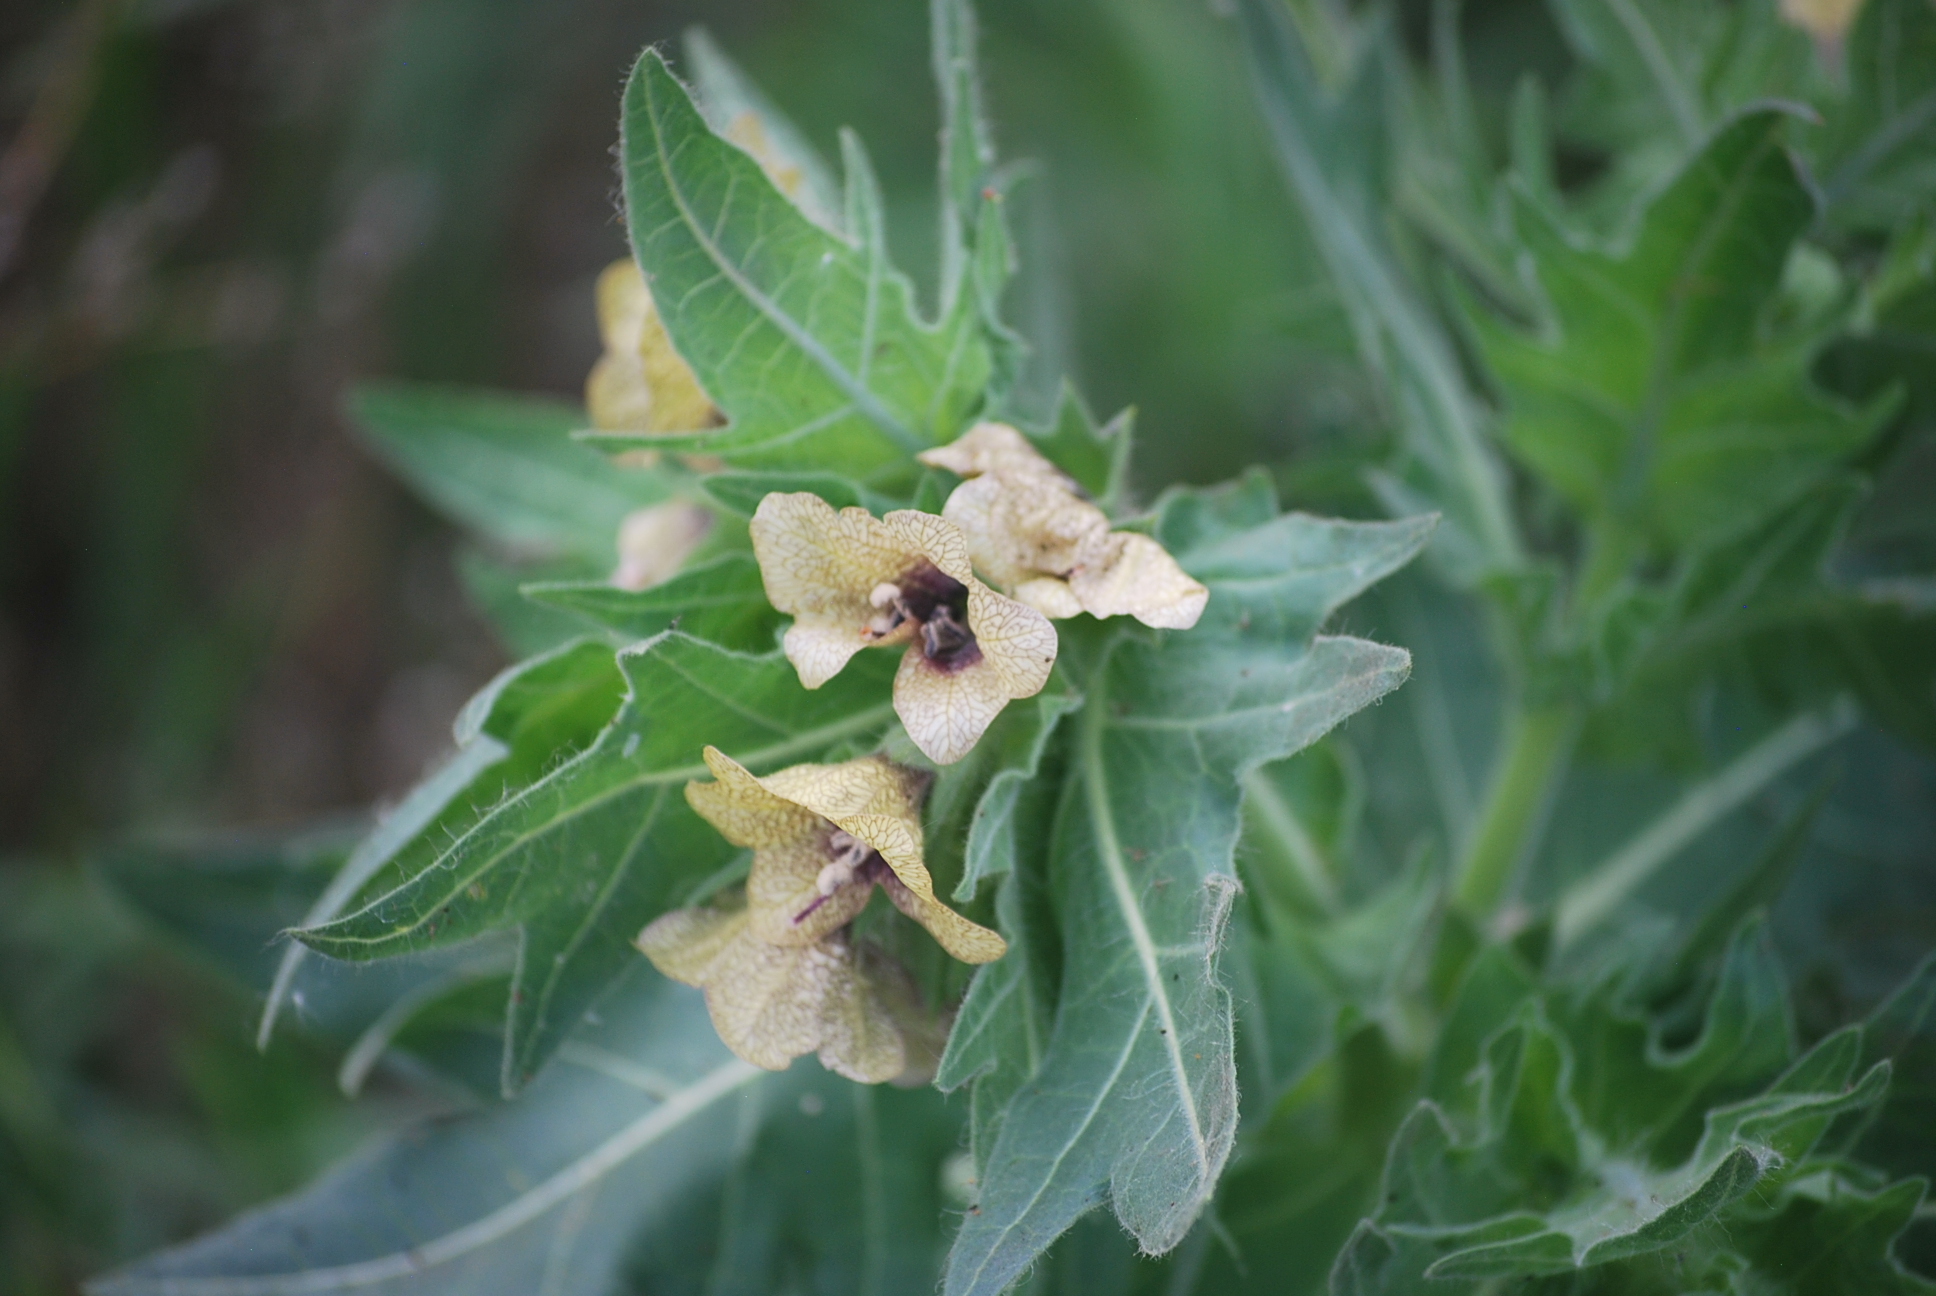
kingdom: Plantae
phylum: Tracheophyta
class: Magnoliopsida
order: Solanales
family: Solanaceae
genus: Hyoscyamus
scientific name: Hyoscyamus niger
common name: Henbane
